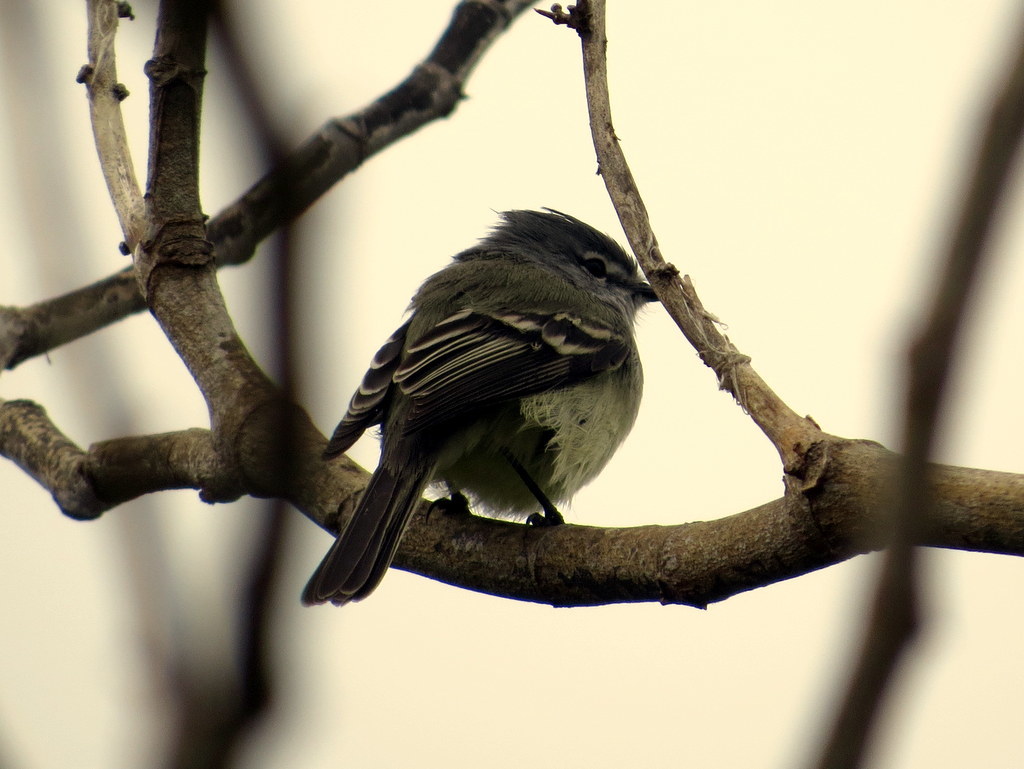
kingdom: Animalia
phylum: Chordata
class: Aves
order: Passeriformes
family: Tyrannidae
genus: Serpophaga
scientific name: Serpophaga griseicapilla
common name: Straneck's tyrannulet
